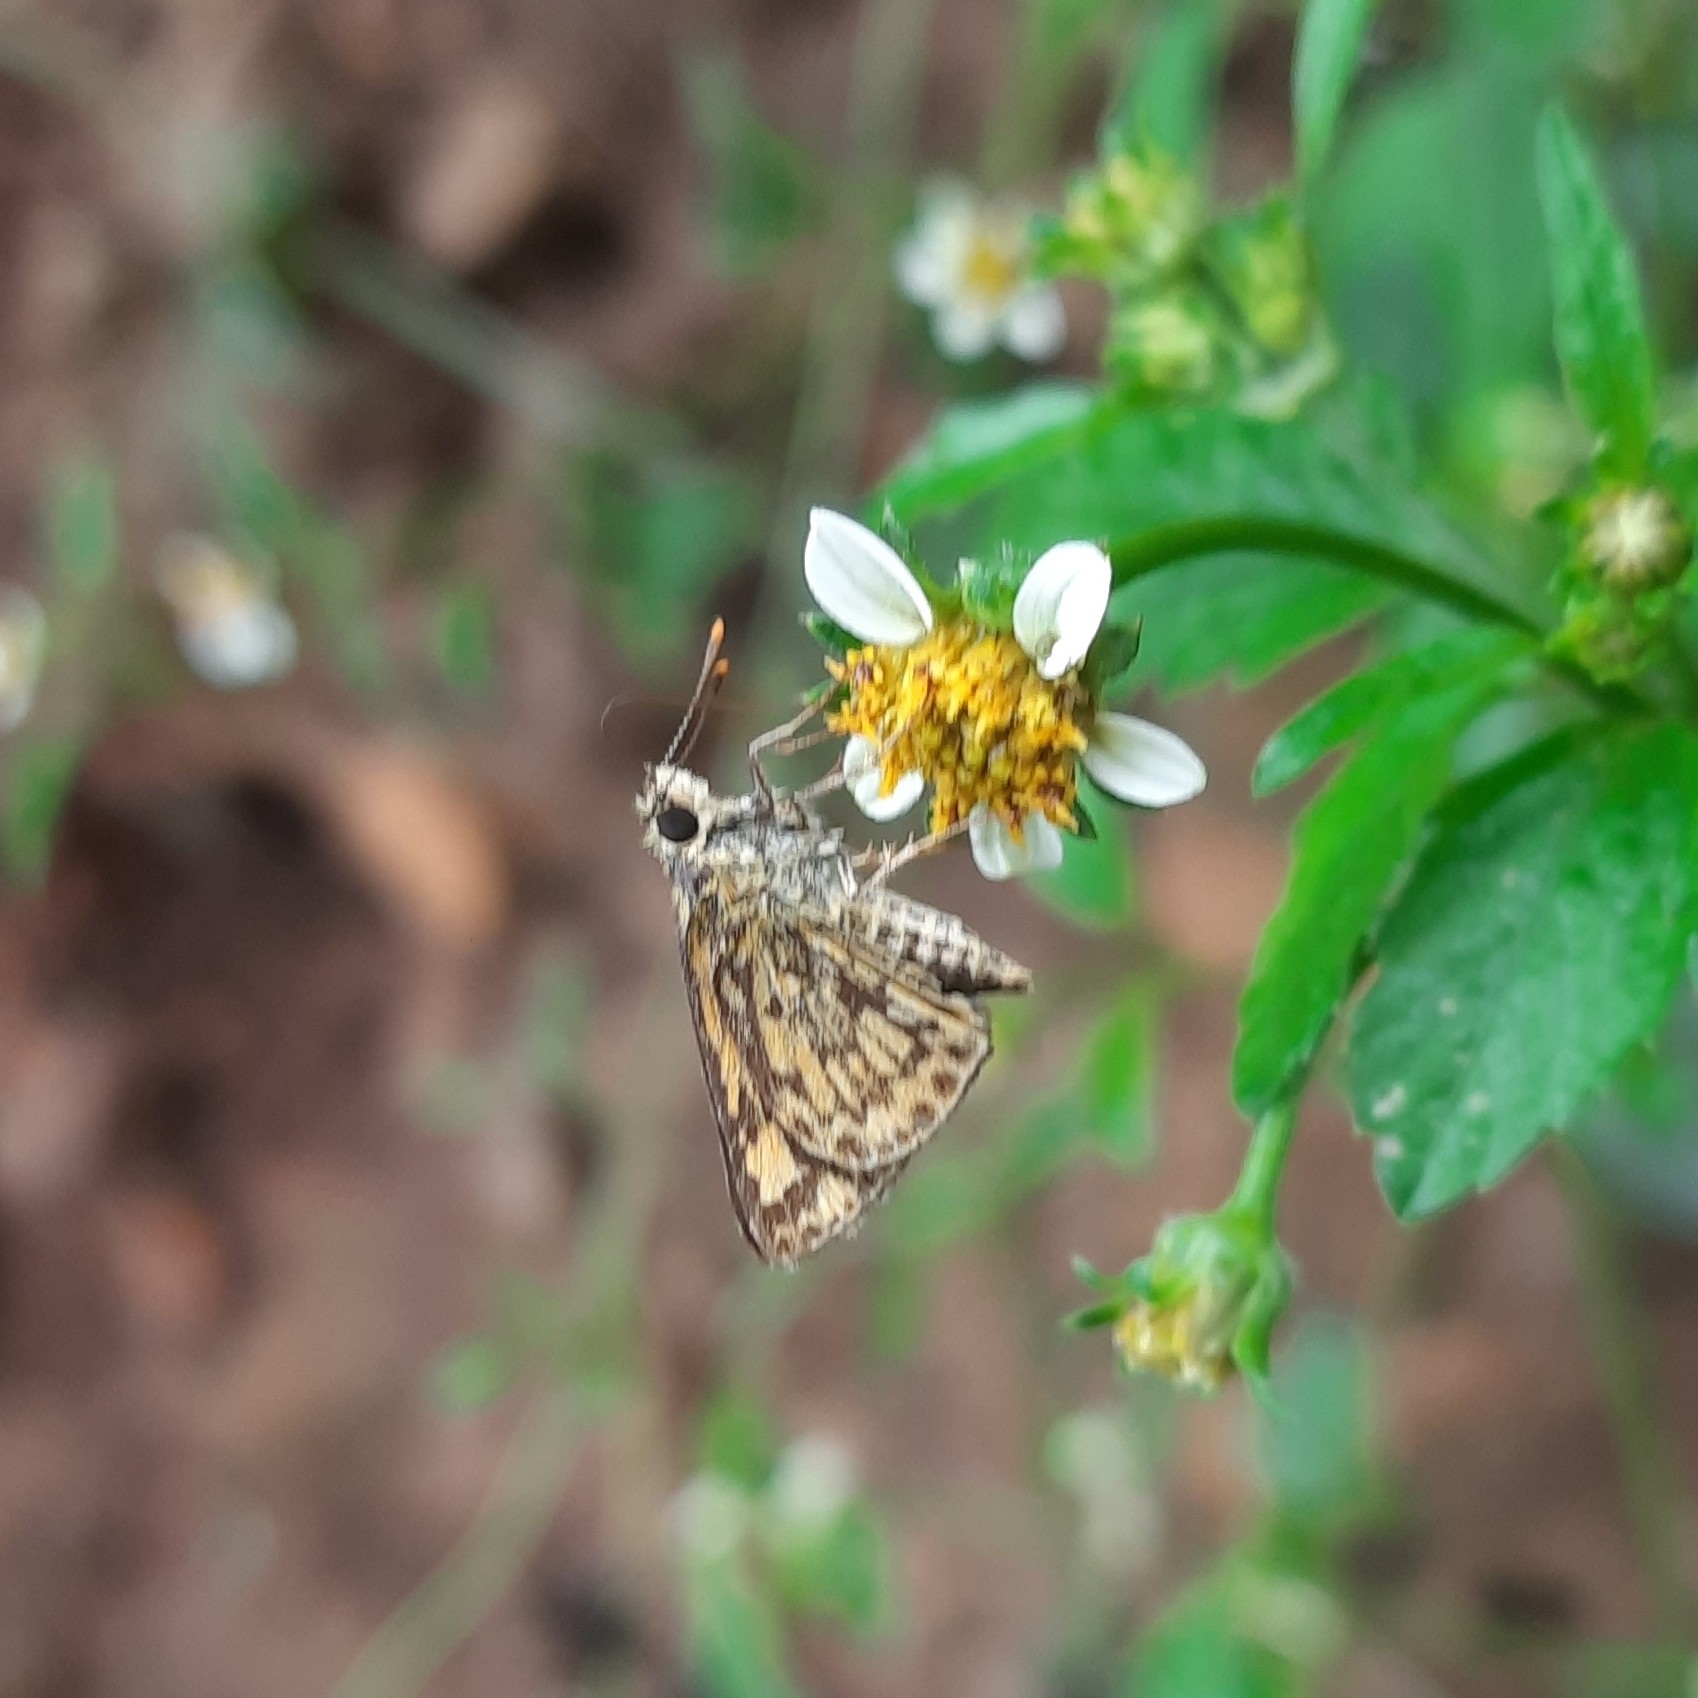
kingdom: Animalia
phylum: Arthropoda
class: Insecta
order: Lepidoptera
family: Hesperiidae
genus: Ampittia
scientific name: Ampittia dioscorides
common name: Common bush hopper
